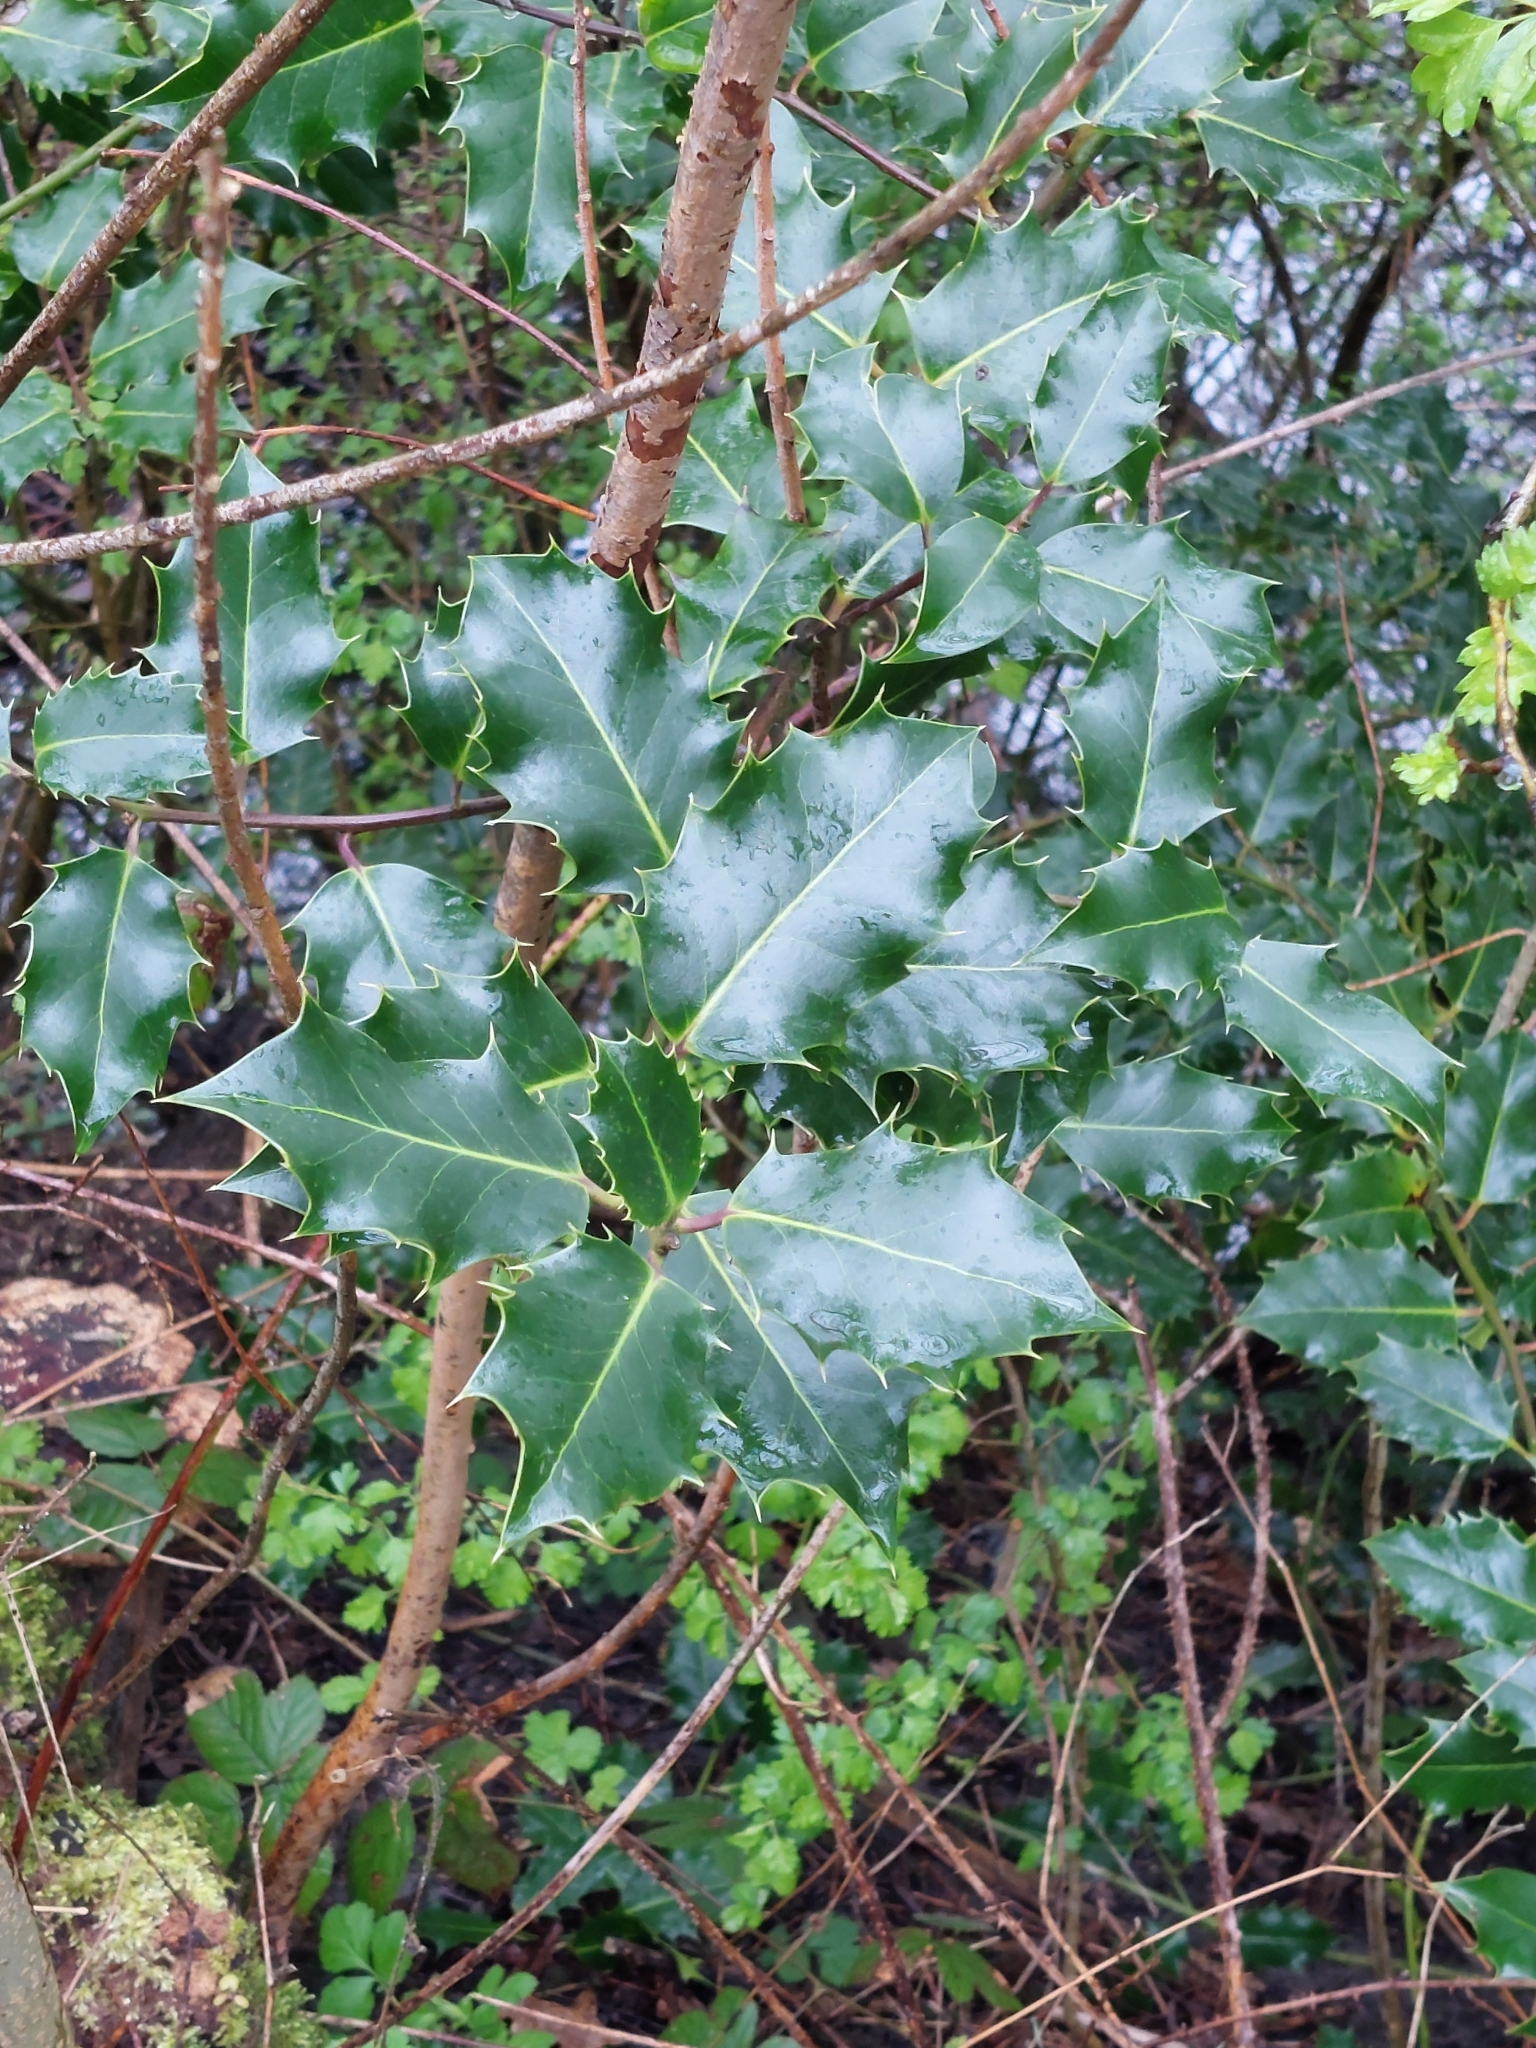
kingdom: Plantae
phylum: Tracheophyta
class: Magnoliopsida
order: Aquifoliales
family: Aquifoliaceae
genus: Ilex
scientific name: Ilex aquifolium
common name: English holly
